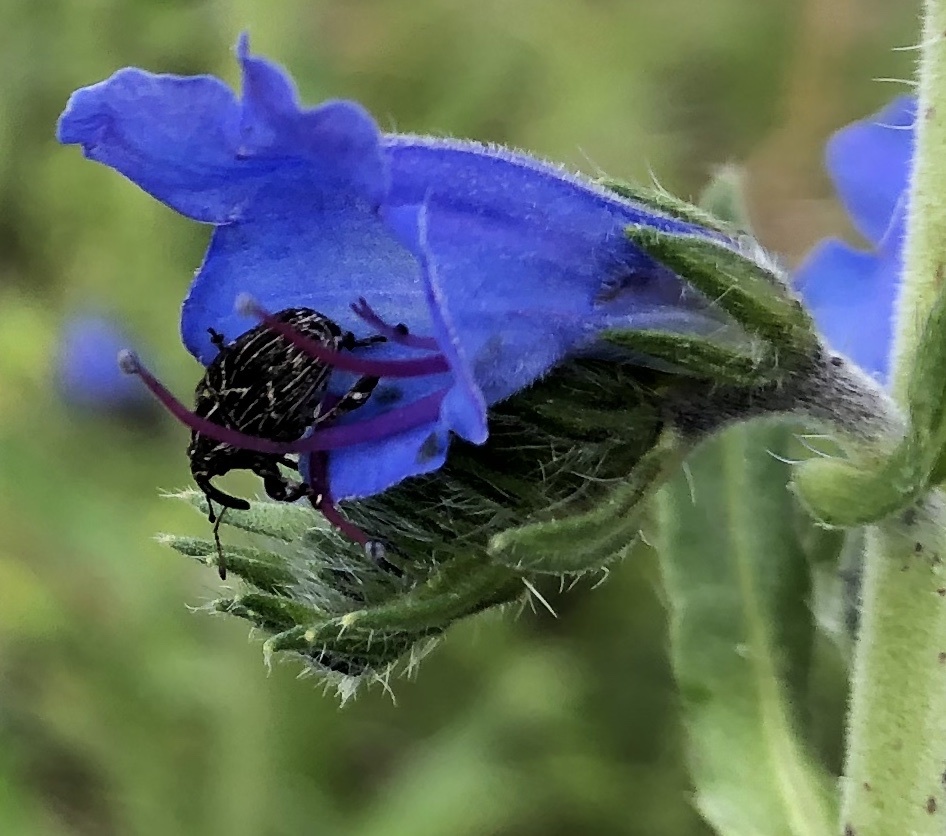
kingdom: Animalia
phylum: Arthropoda
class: Insecta
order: Coleoptera
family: Curculionidae
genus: Mogulones
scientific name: Mogulones geographicus
